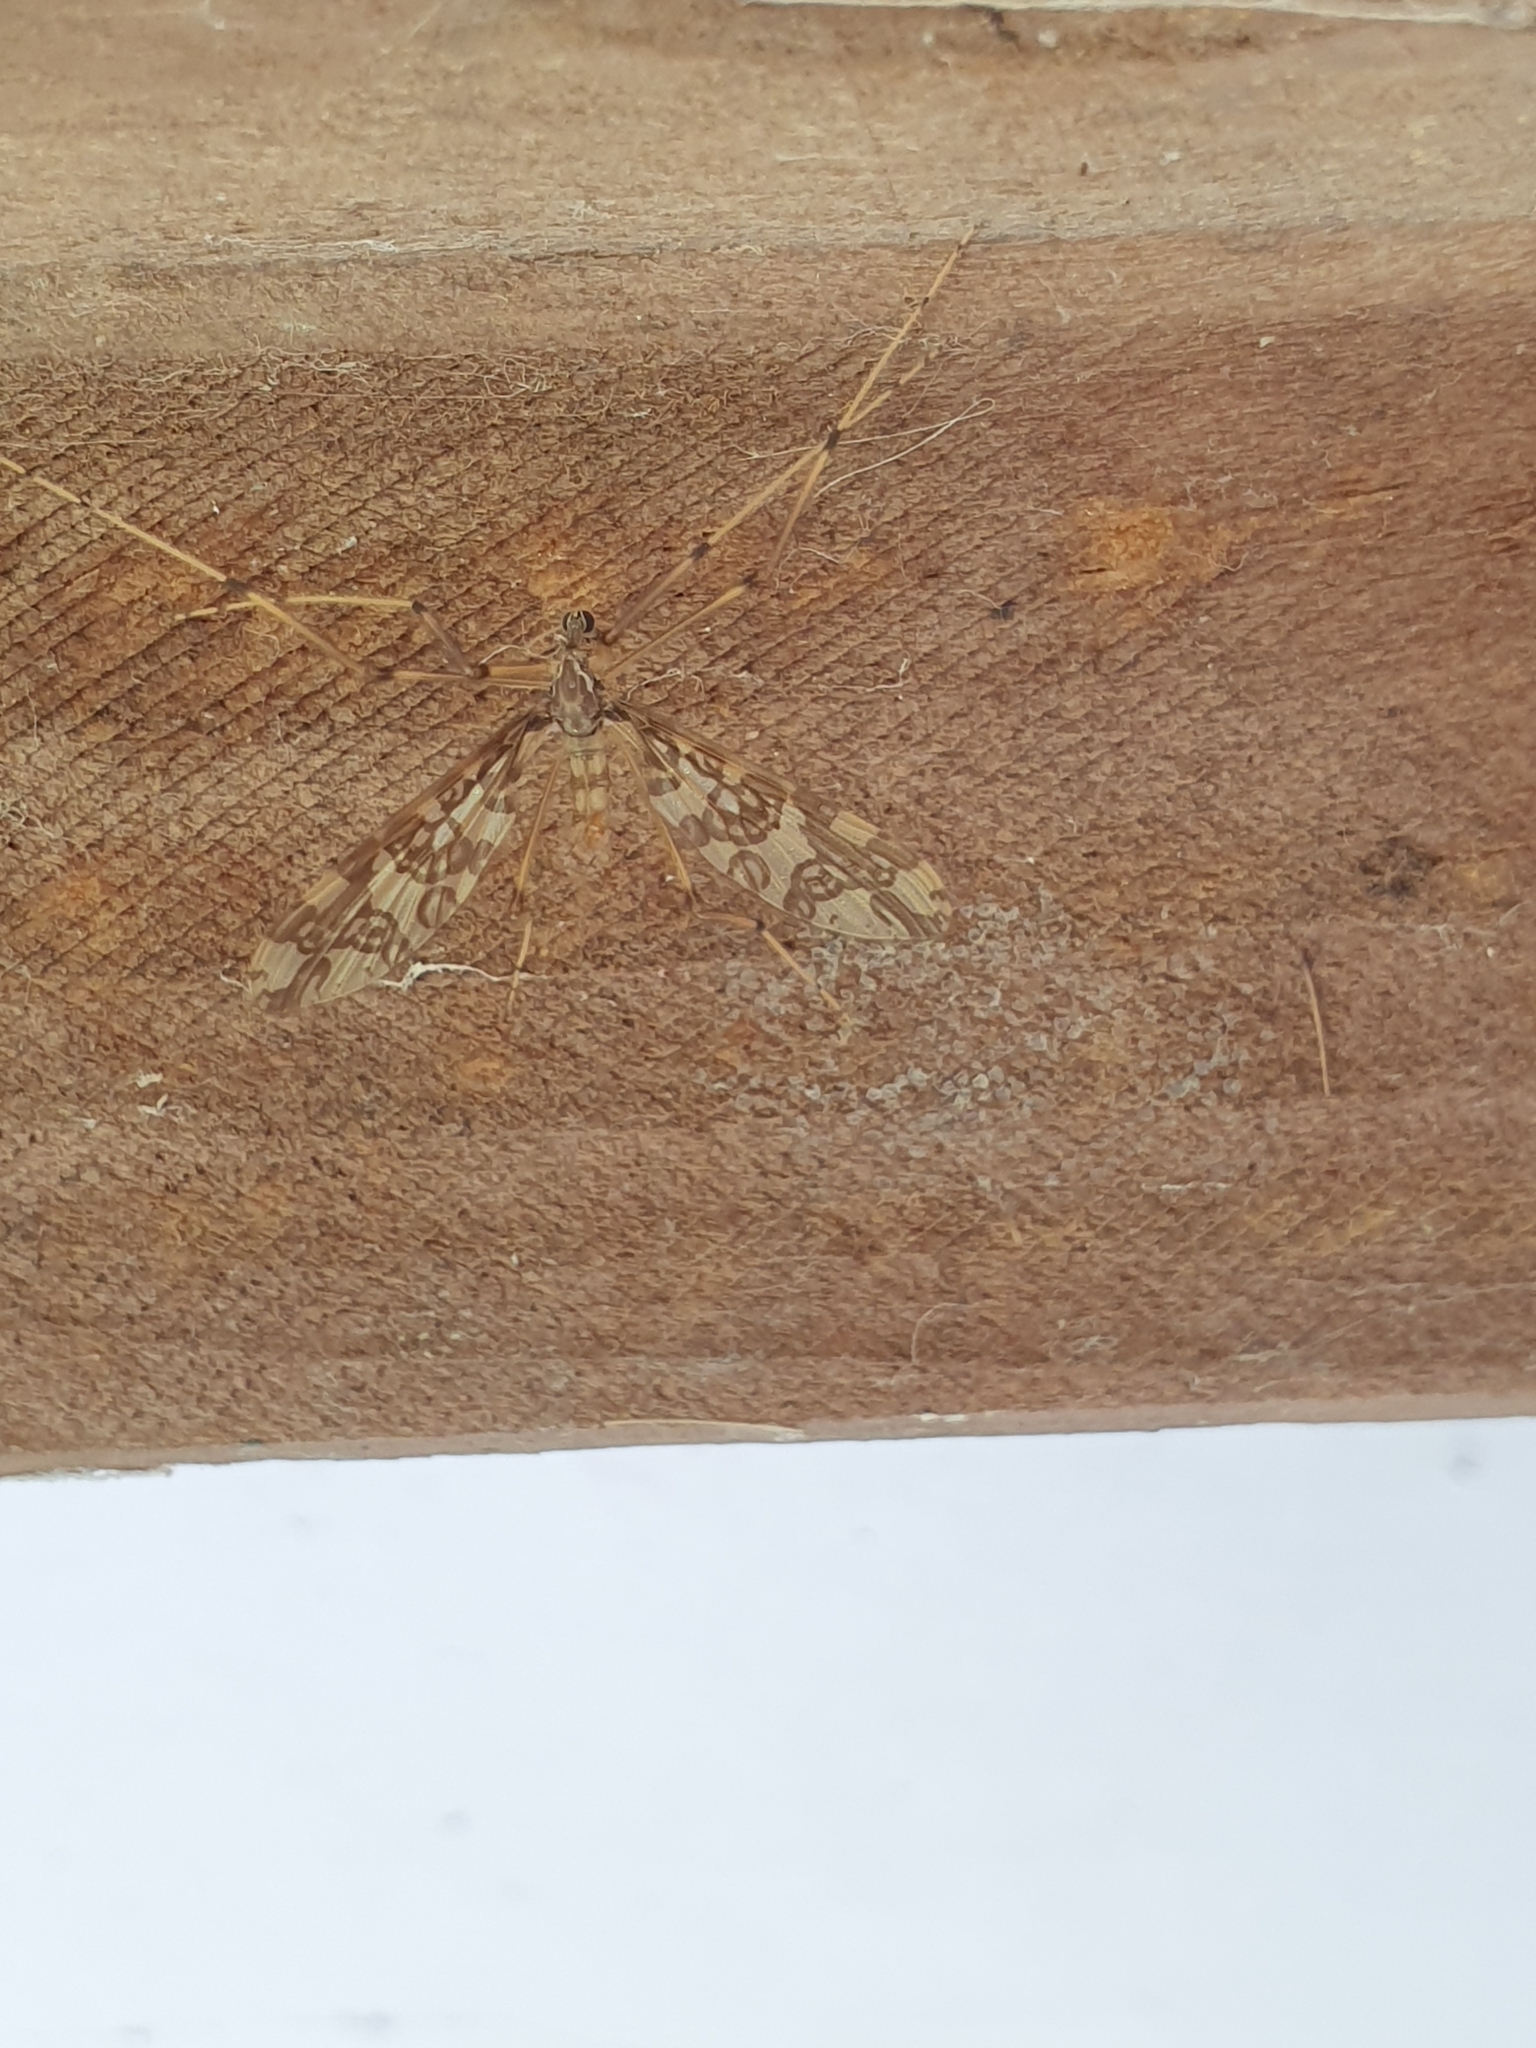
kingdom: Animalia
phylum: Arthropoda
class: Insecta
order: Diptera
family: Tanyderidae
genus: Tanyderus
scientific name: Tanyderus annuliferus
